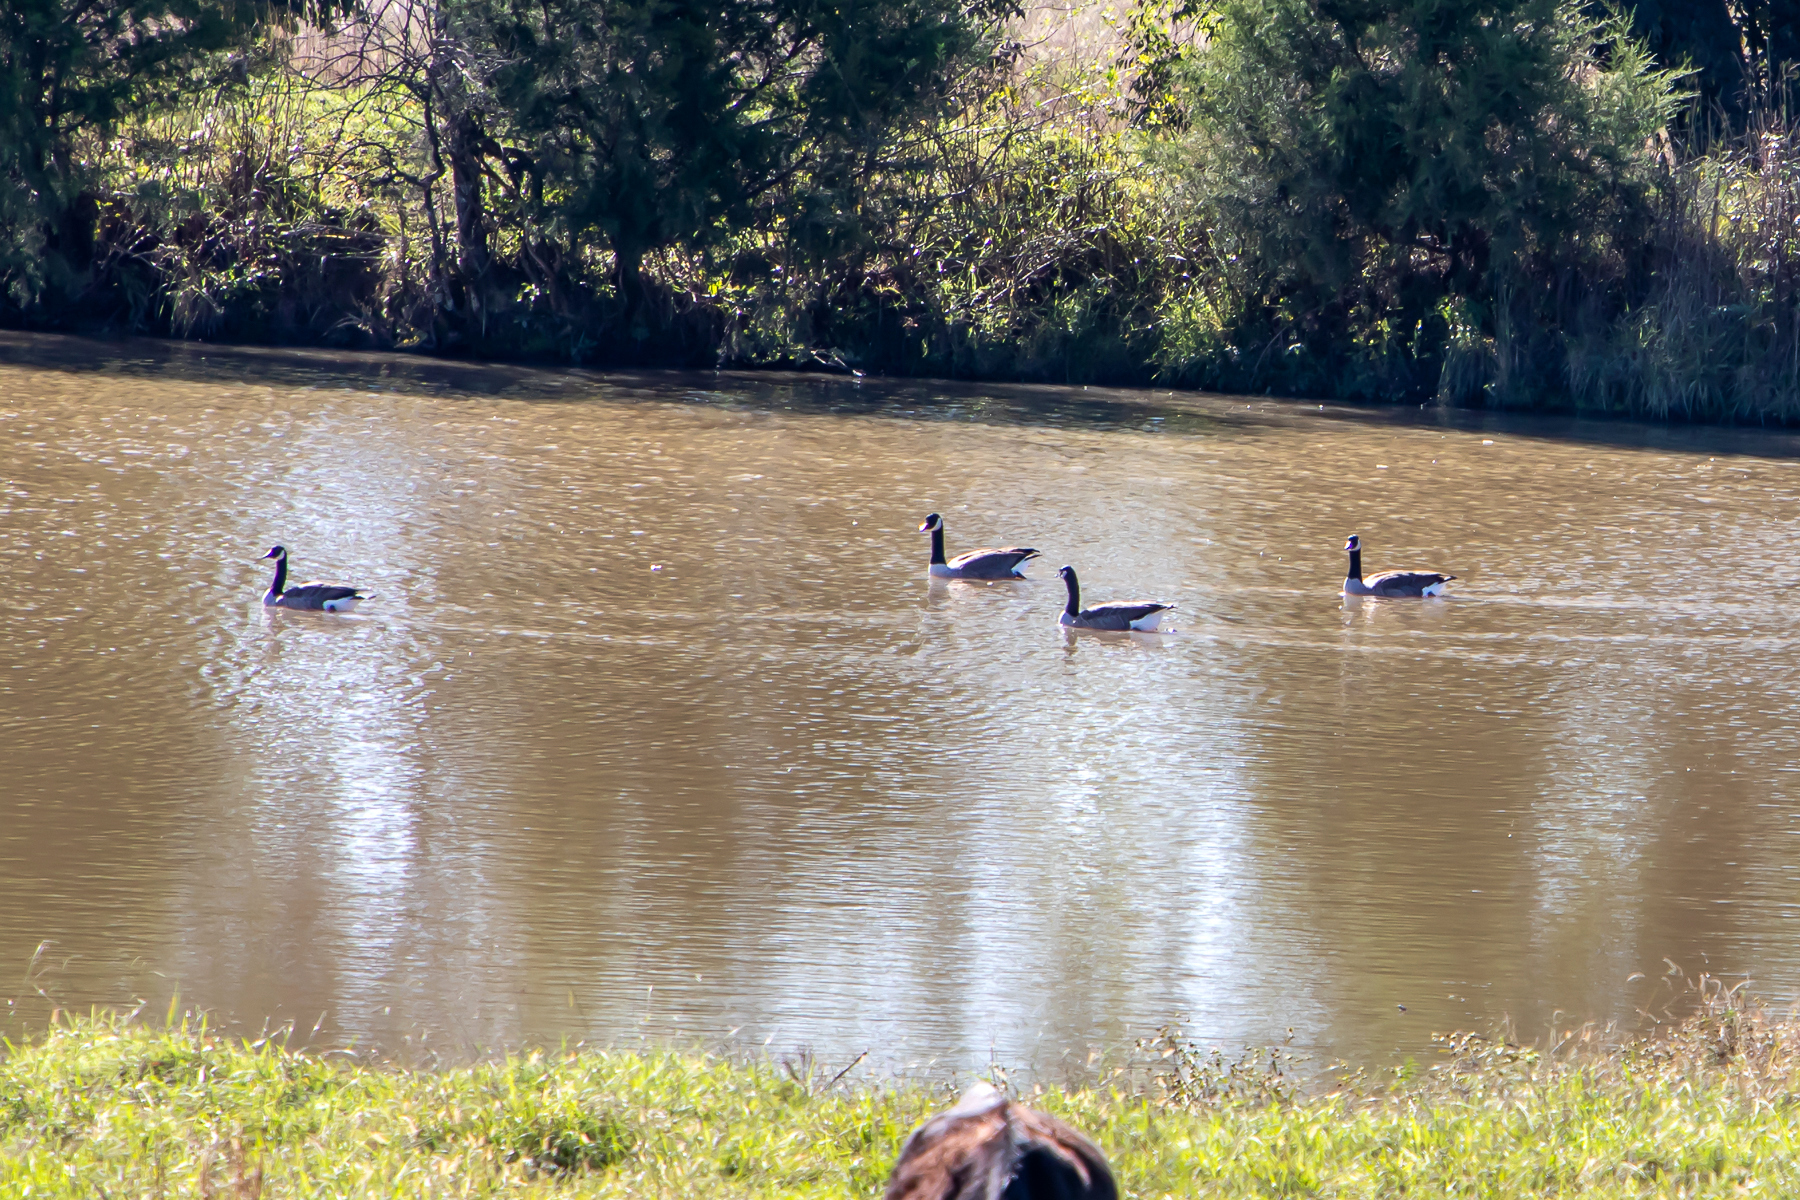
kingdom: Animalia
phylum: Chordata
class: Aves
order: Anseriformes
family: Anatidae
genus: Branta
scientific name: Branta canadensis
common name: Canada goose
